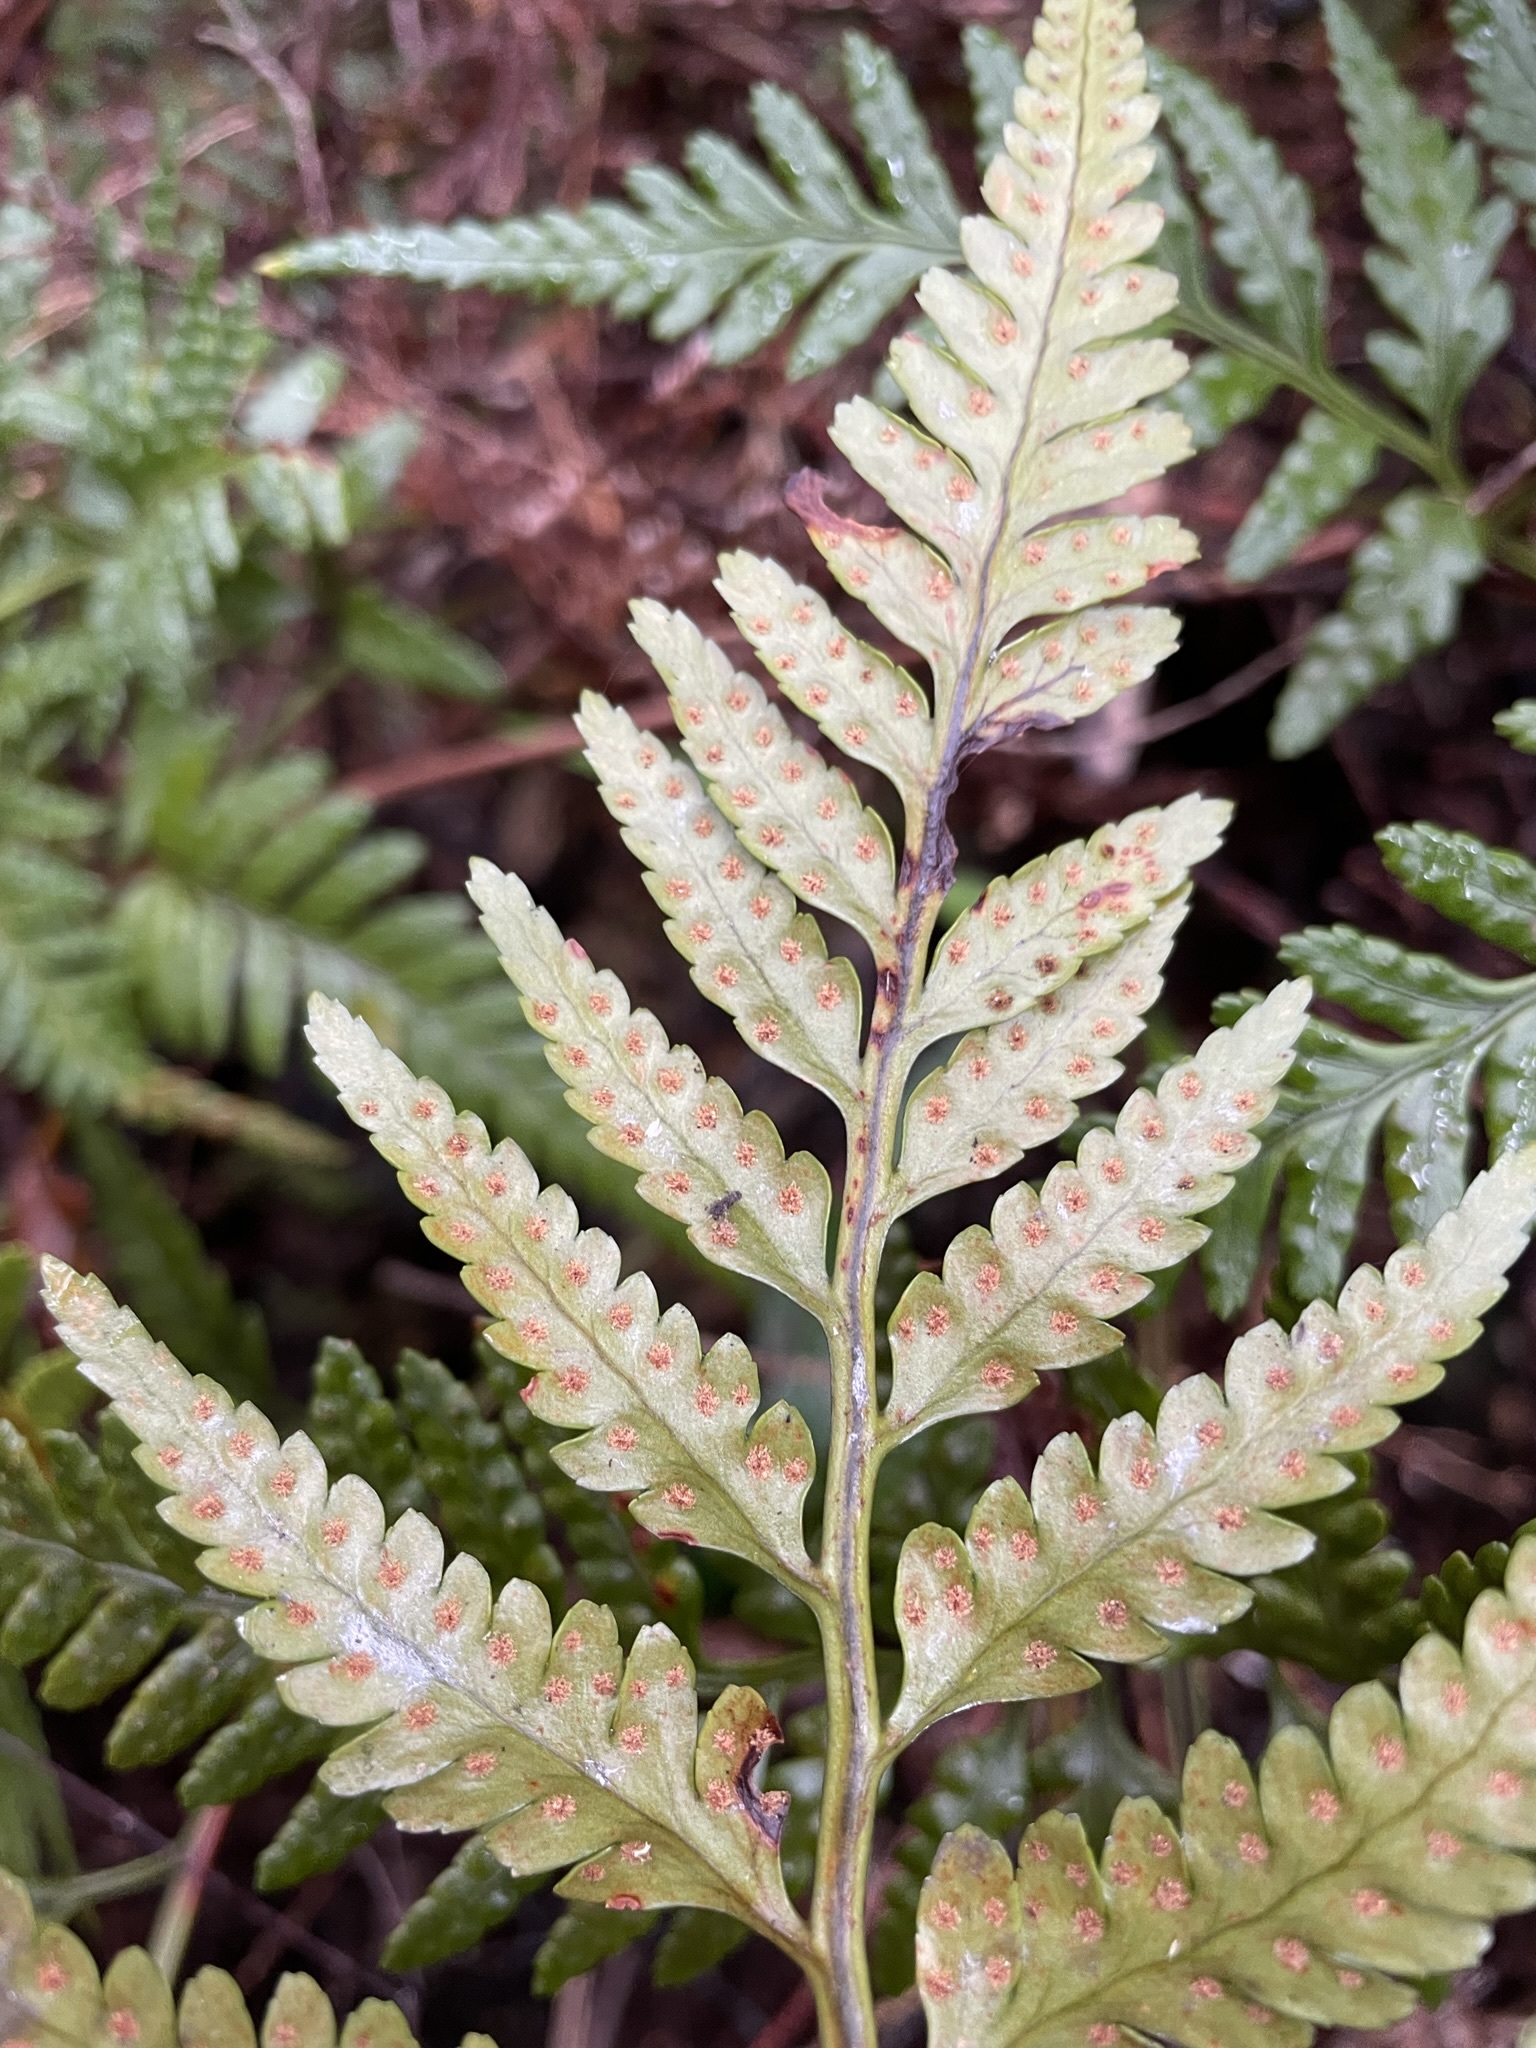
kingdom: Plantae
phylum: Tracheophyta
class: Polypodiopsida
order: Polypodiales
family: Dryopteridaceae
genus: Rumohra
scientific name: Rumohra adiantiformis
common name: Leather fern
